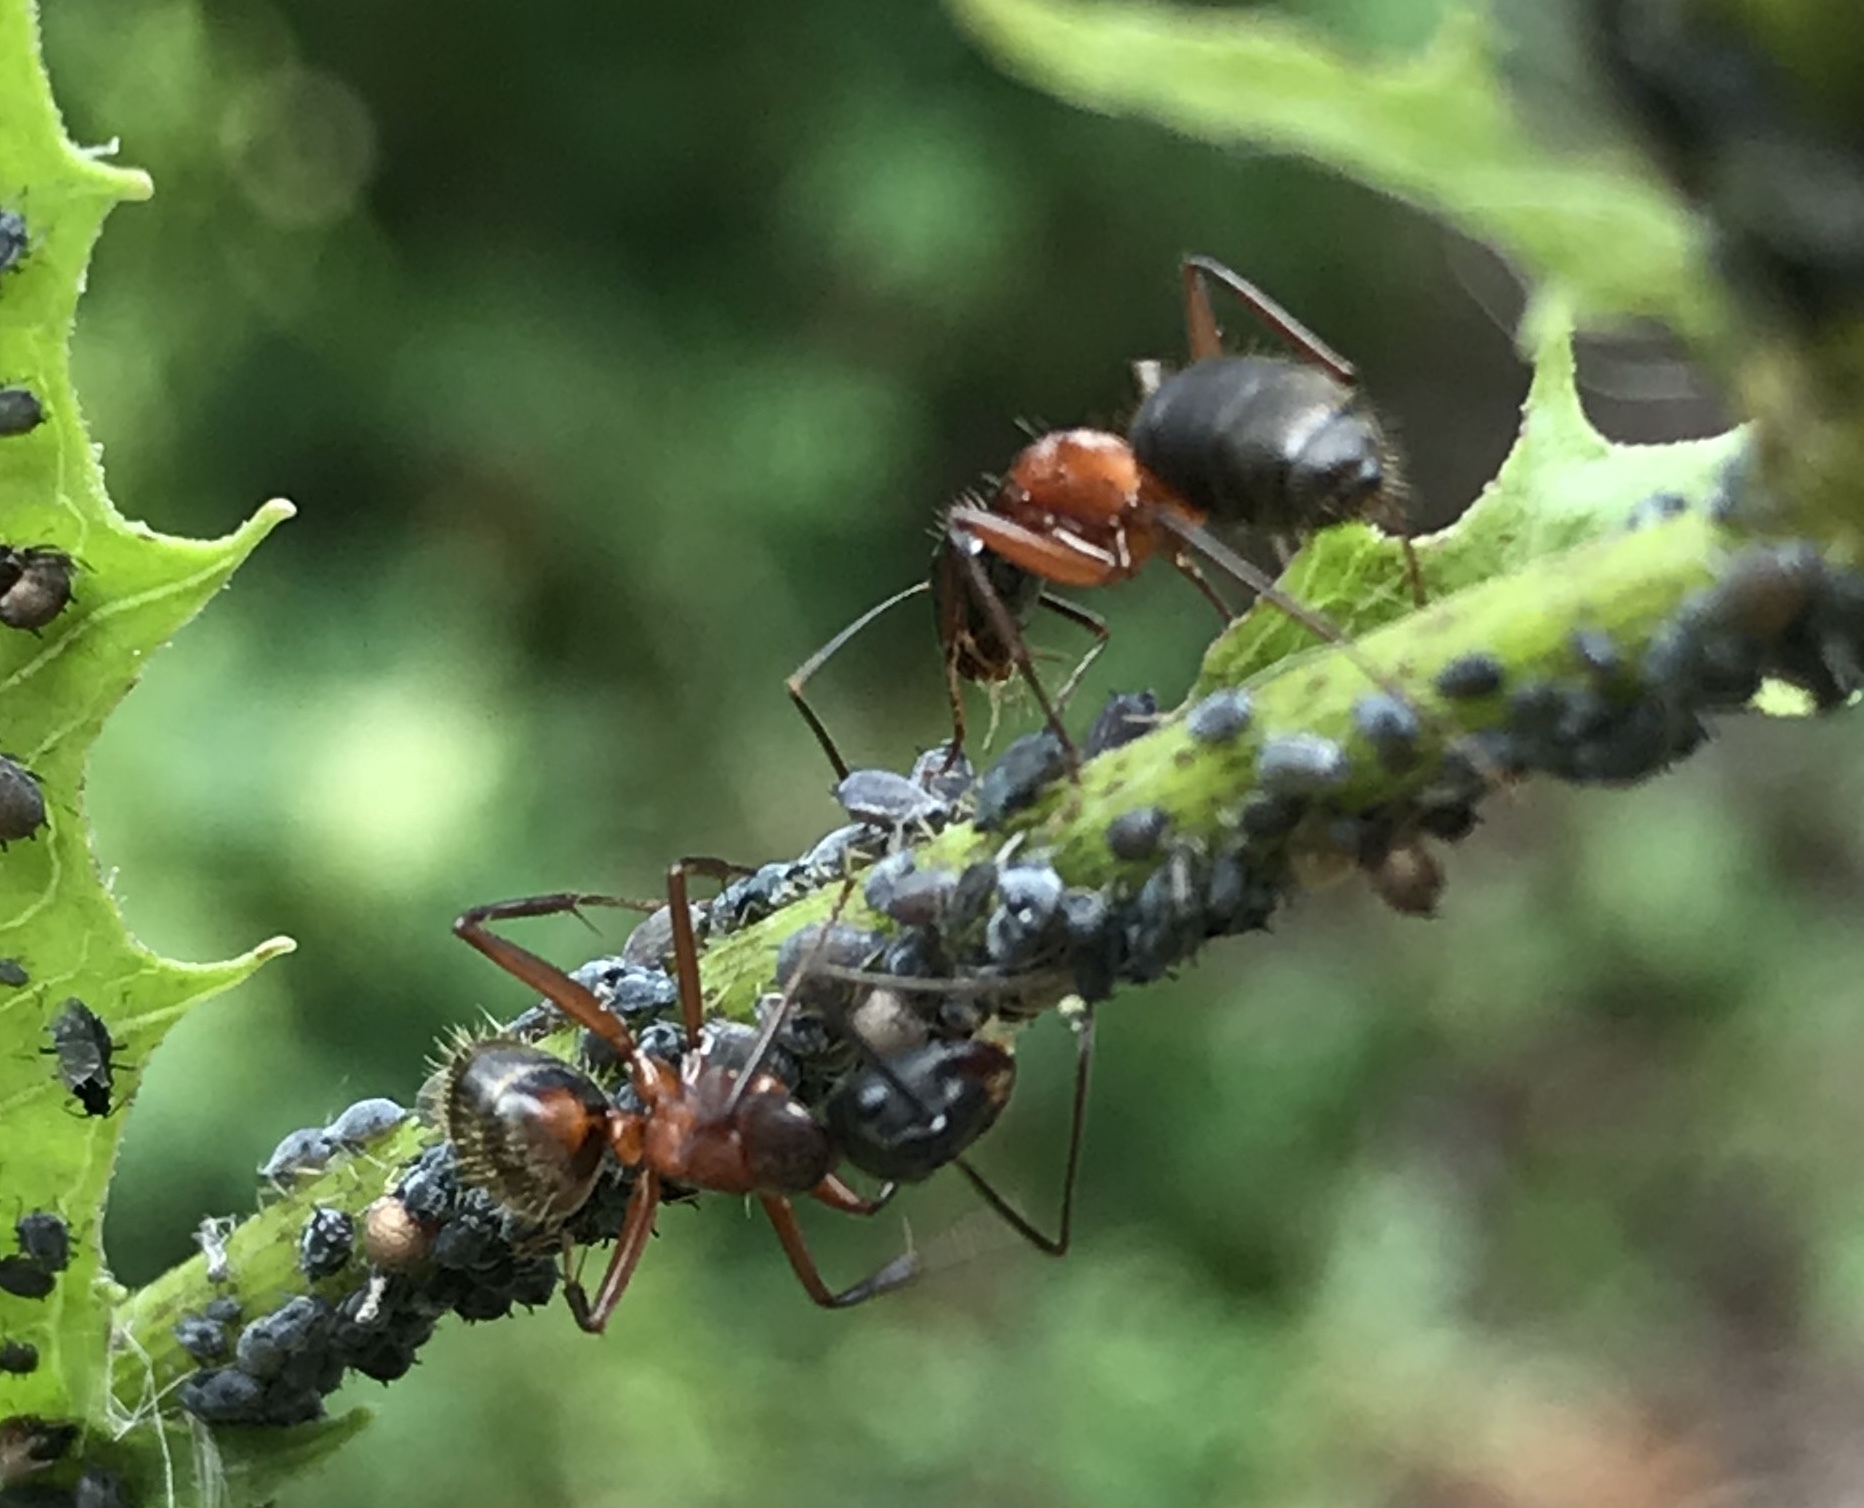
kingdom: Animalia
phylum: Arthropoda
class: Insecta
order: Hymenoptera
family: Formicidae
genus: Camponotus
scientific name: Camponotus chromaiodes
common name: Red carpenter ant
